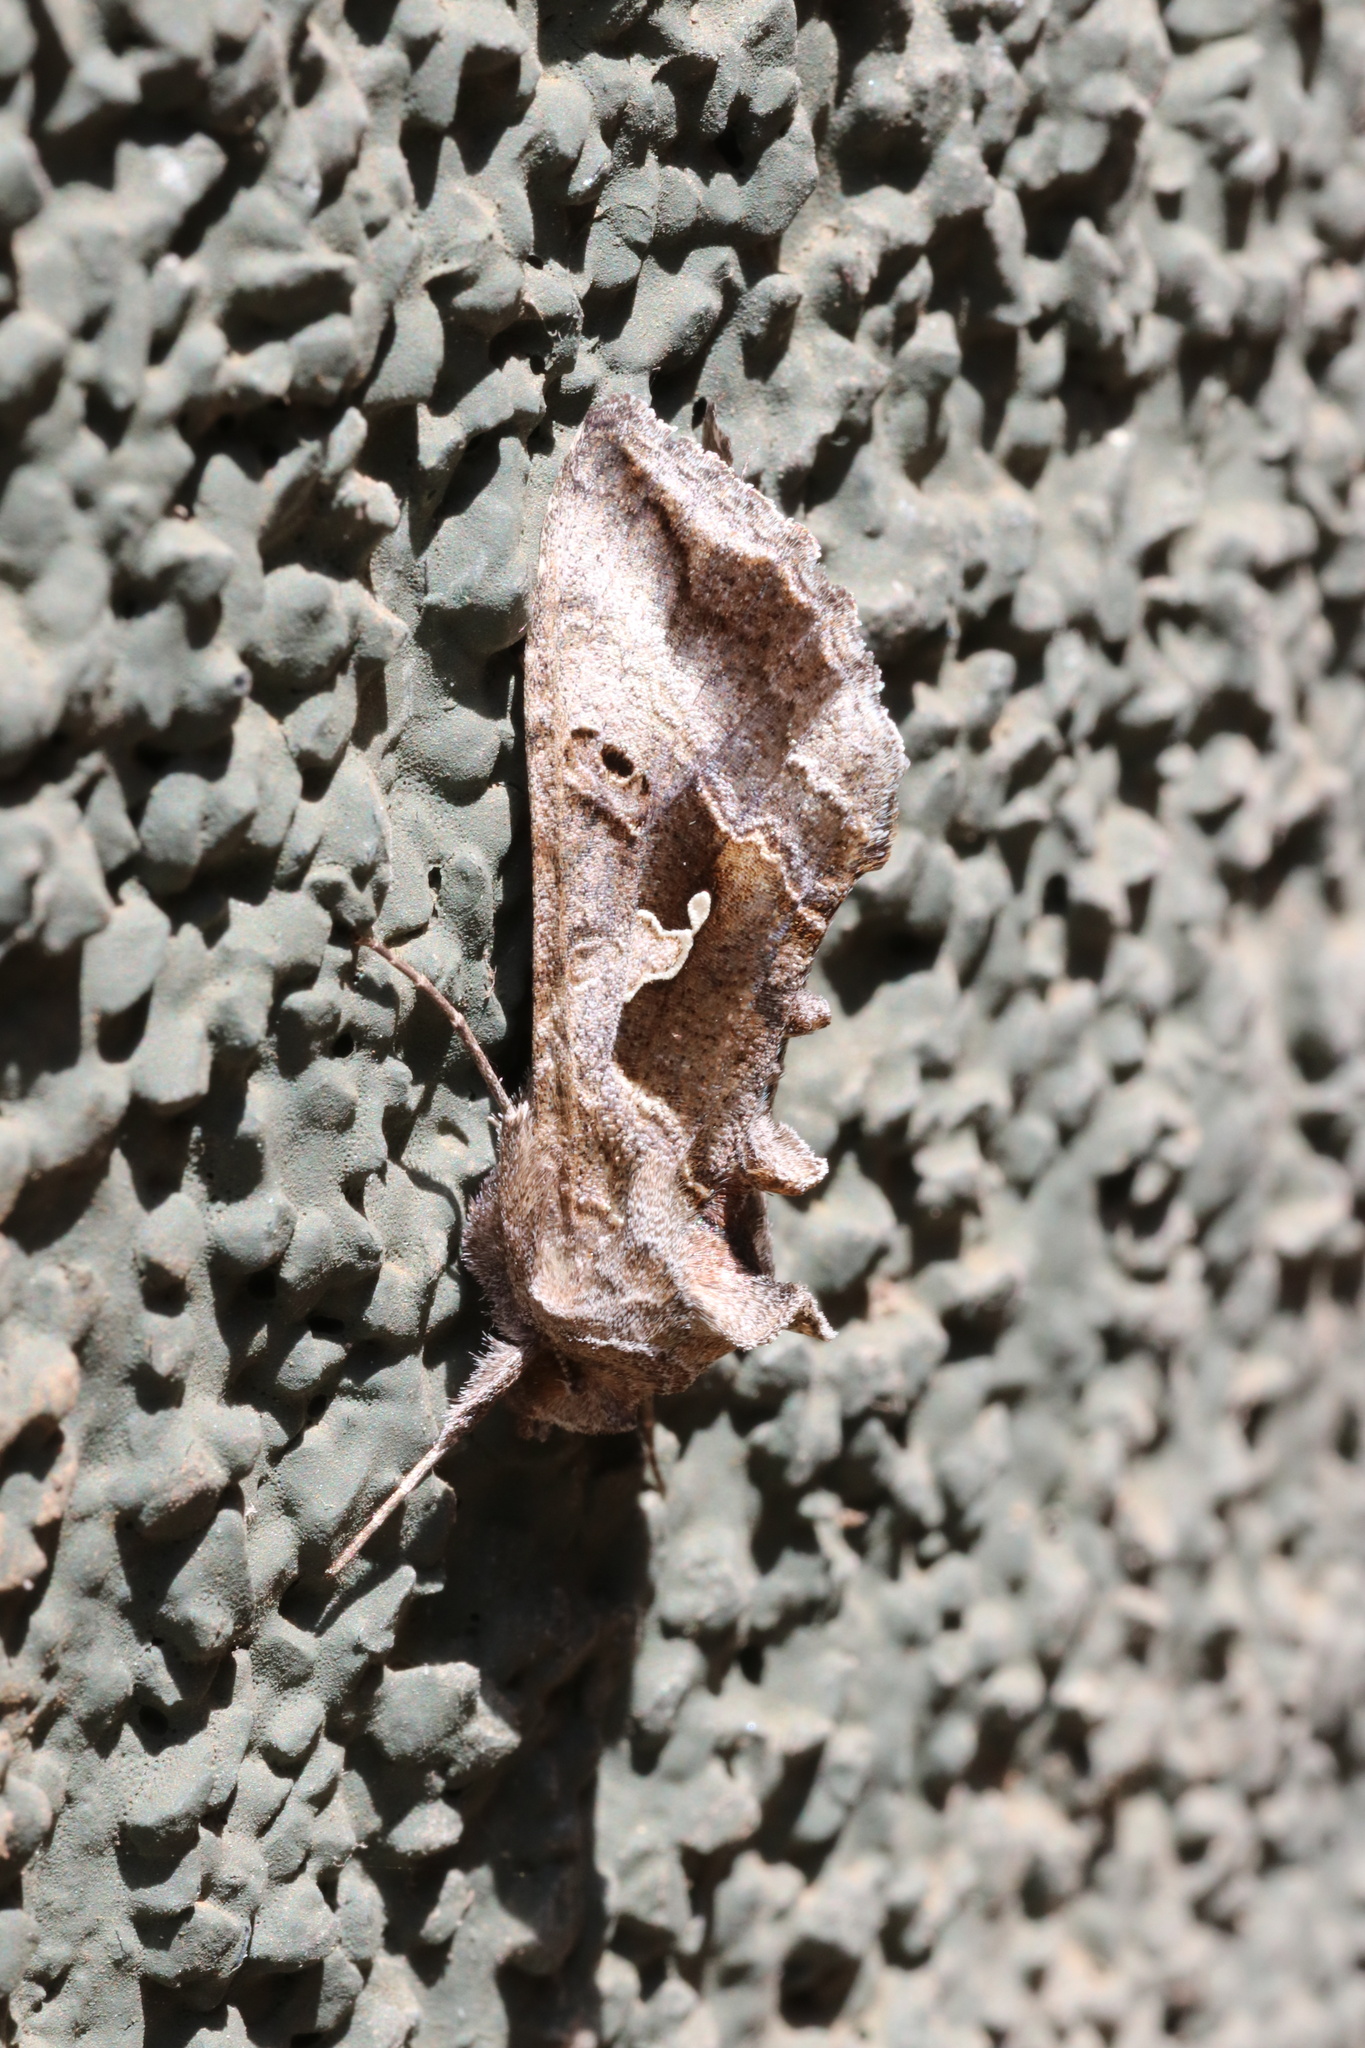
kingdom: Animalia
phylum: Arthropoda
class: Insecta
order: Lepidoptera
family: Noctuidae
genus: Autoplusia
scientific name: Autoplusia gammoides
